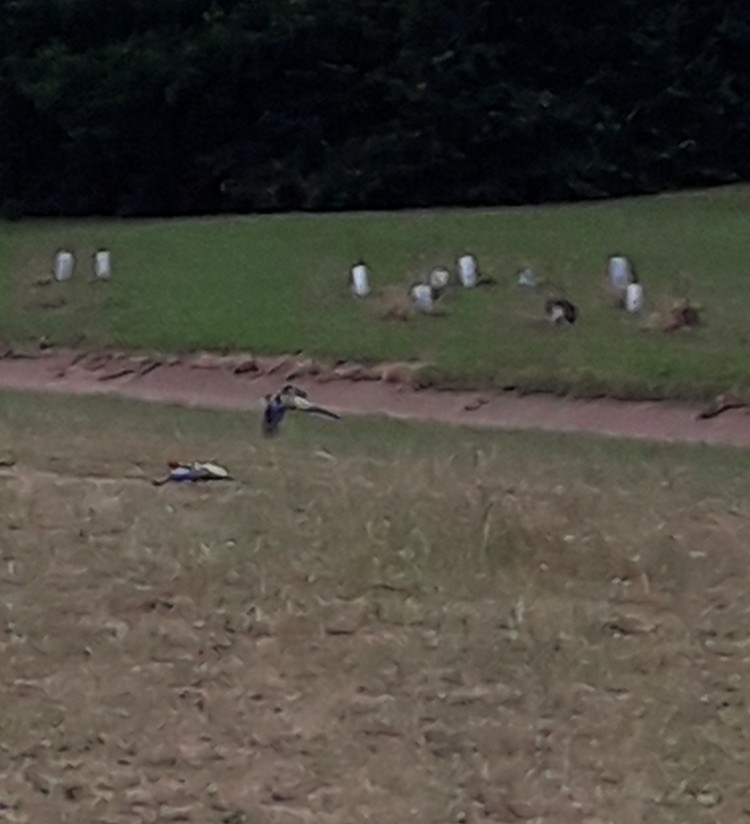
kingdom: Animalia
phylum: Chordata
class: Aves
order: Psittaciformes
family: Psittacidae
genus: Platycercus
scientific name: Platycercus eximius
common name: Eastern rosella
